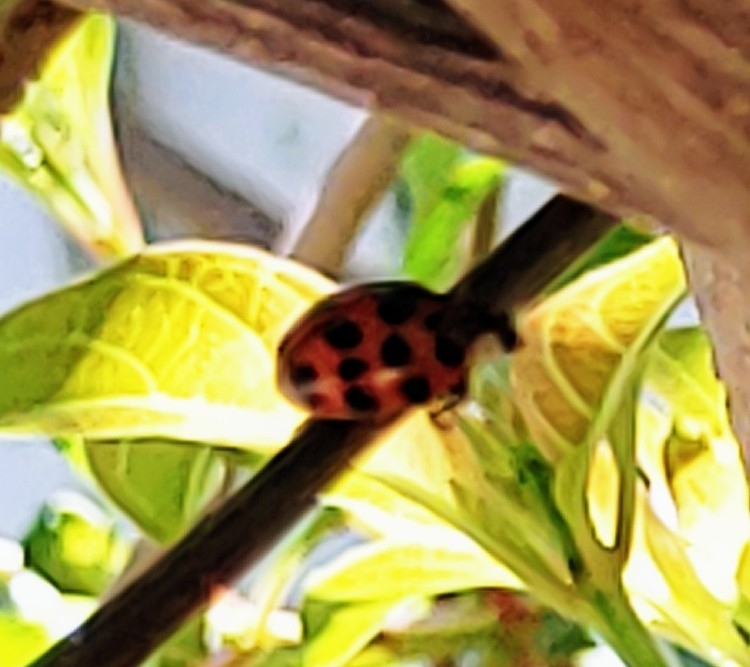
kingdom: Animalia
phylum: Arthropoda
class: Insecta
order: Coleoptera
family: Coccinellidae
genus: Harmonia
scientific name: Harmonia axyridis
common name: Harlequin ladybird
